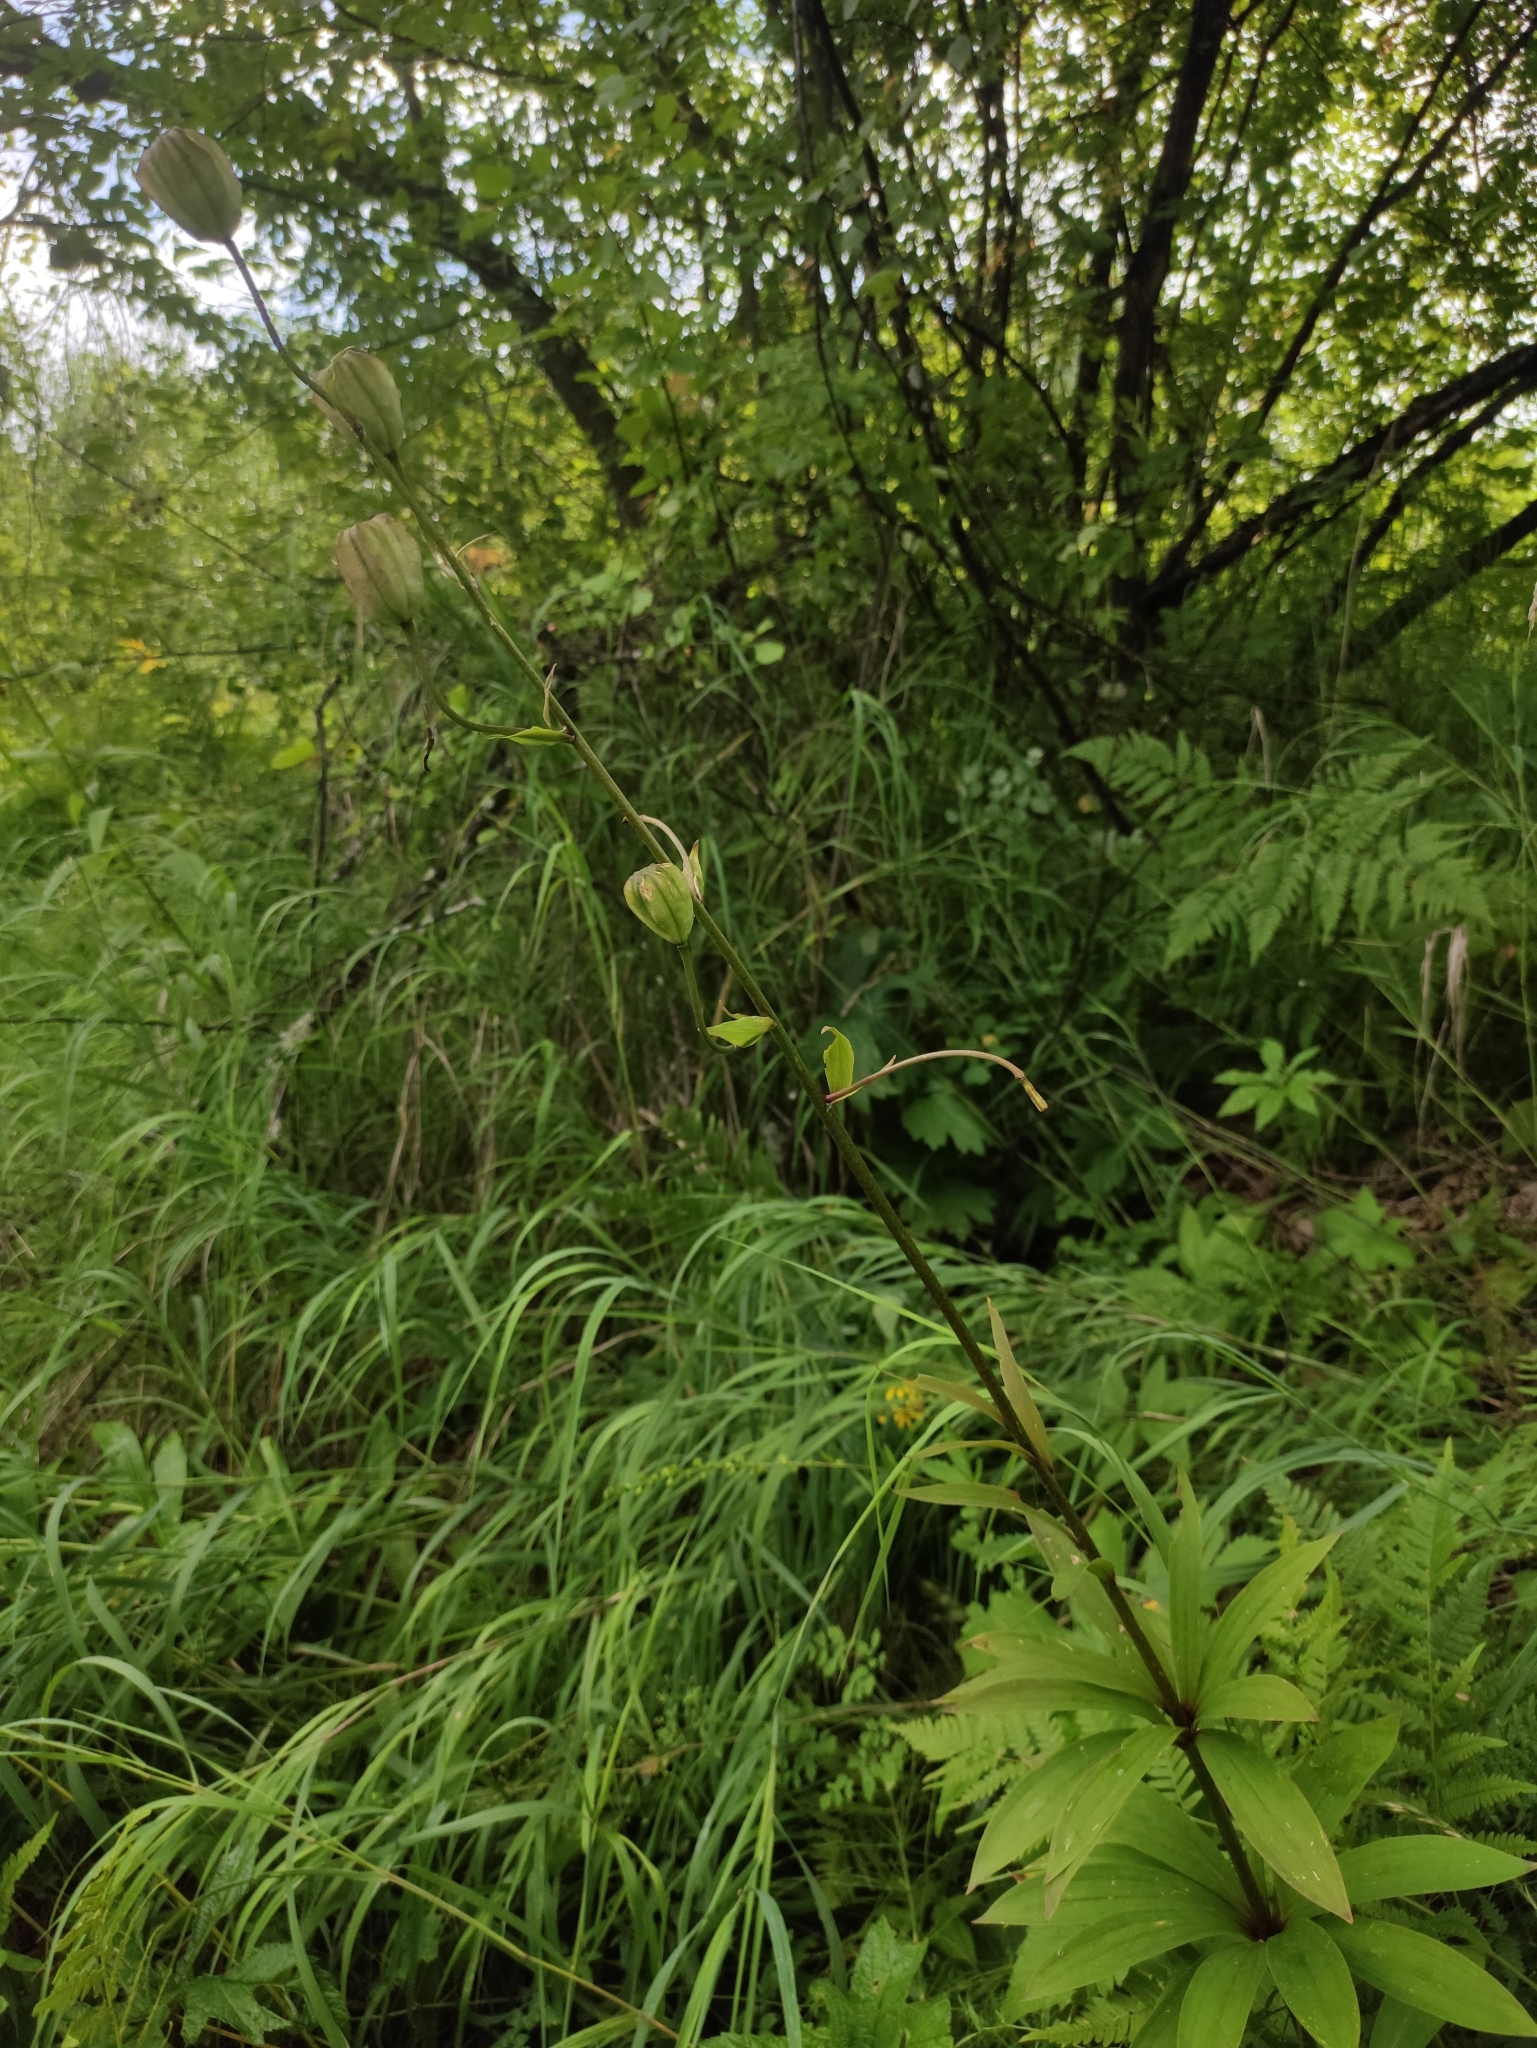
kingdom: Plantae
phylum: Tracheophyta
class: Liliopsida
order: Liliales
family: Liliaceae
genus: Lilium
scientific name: Lilium martagon
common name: Martagon lily
